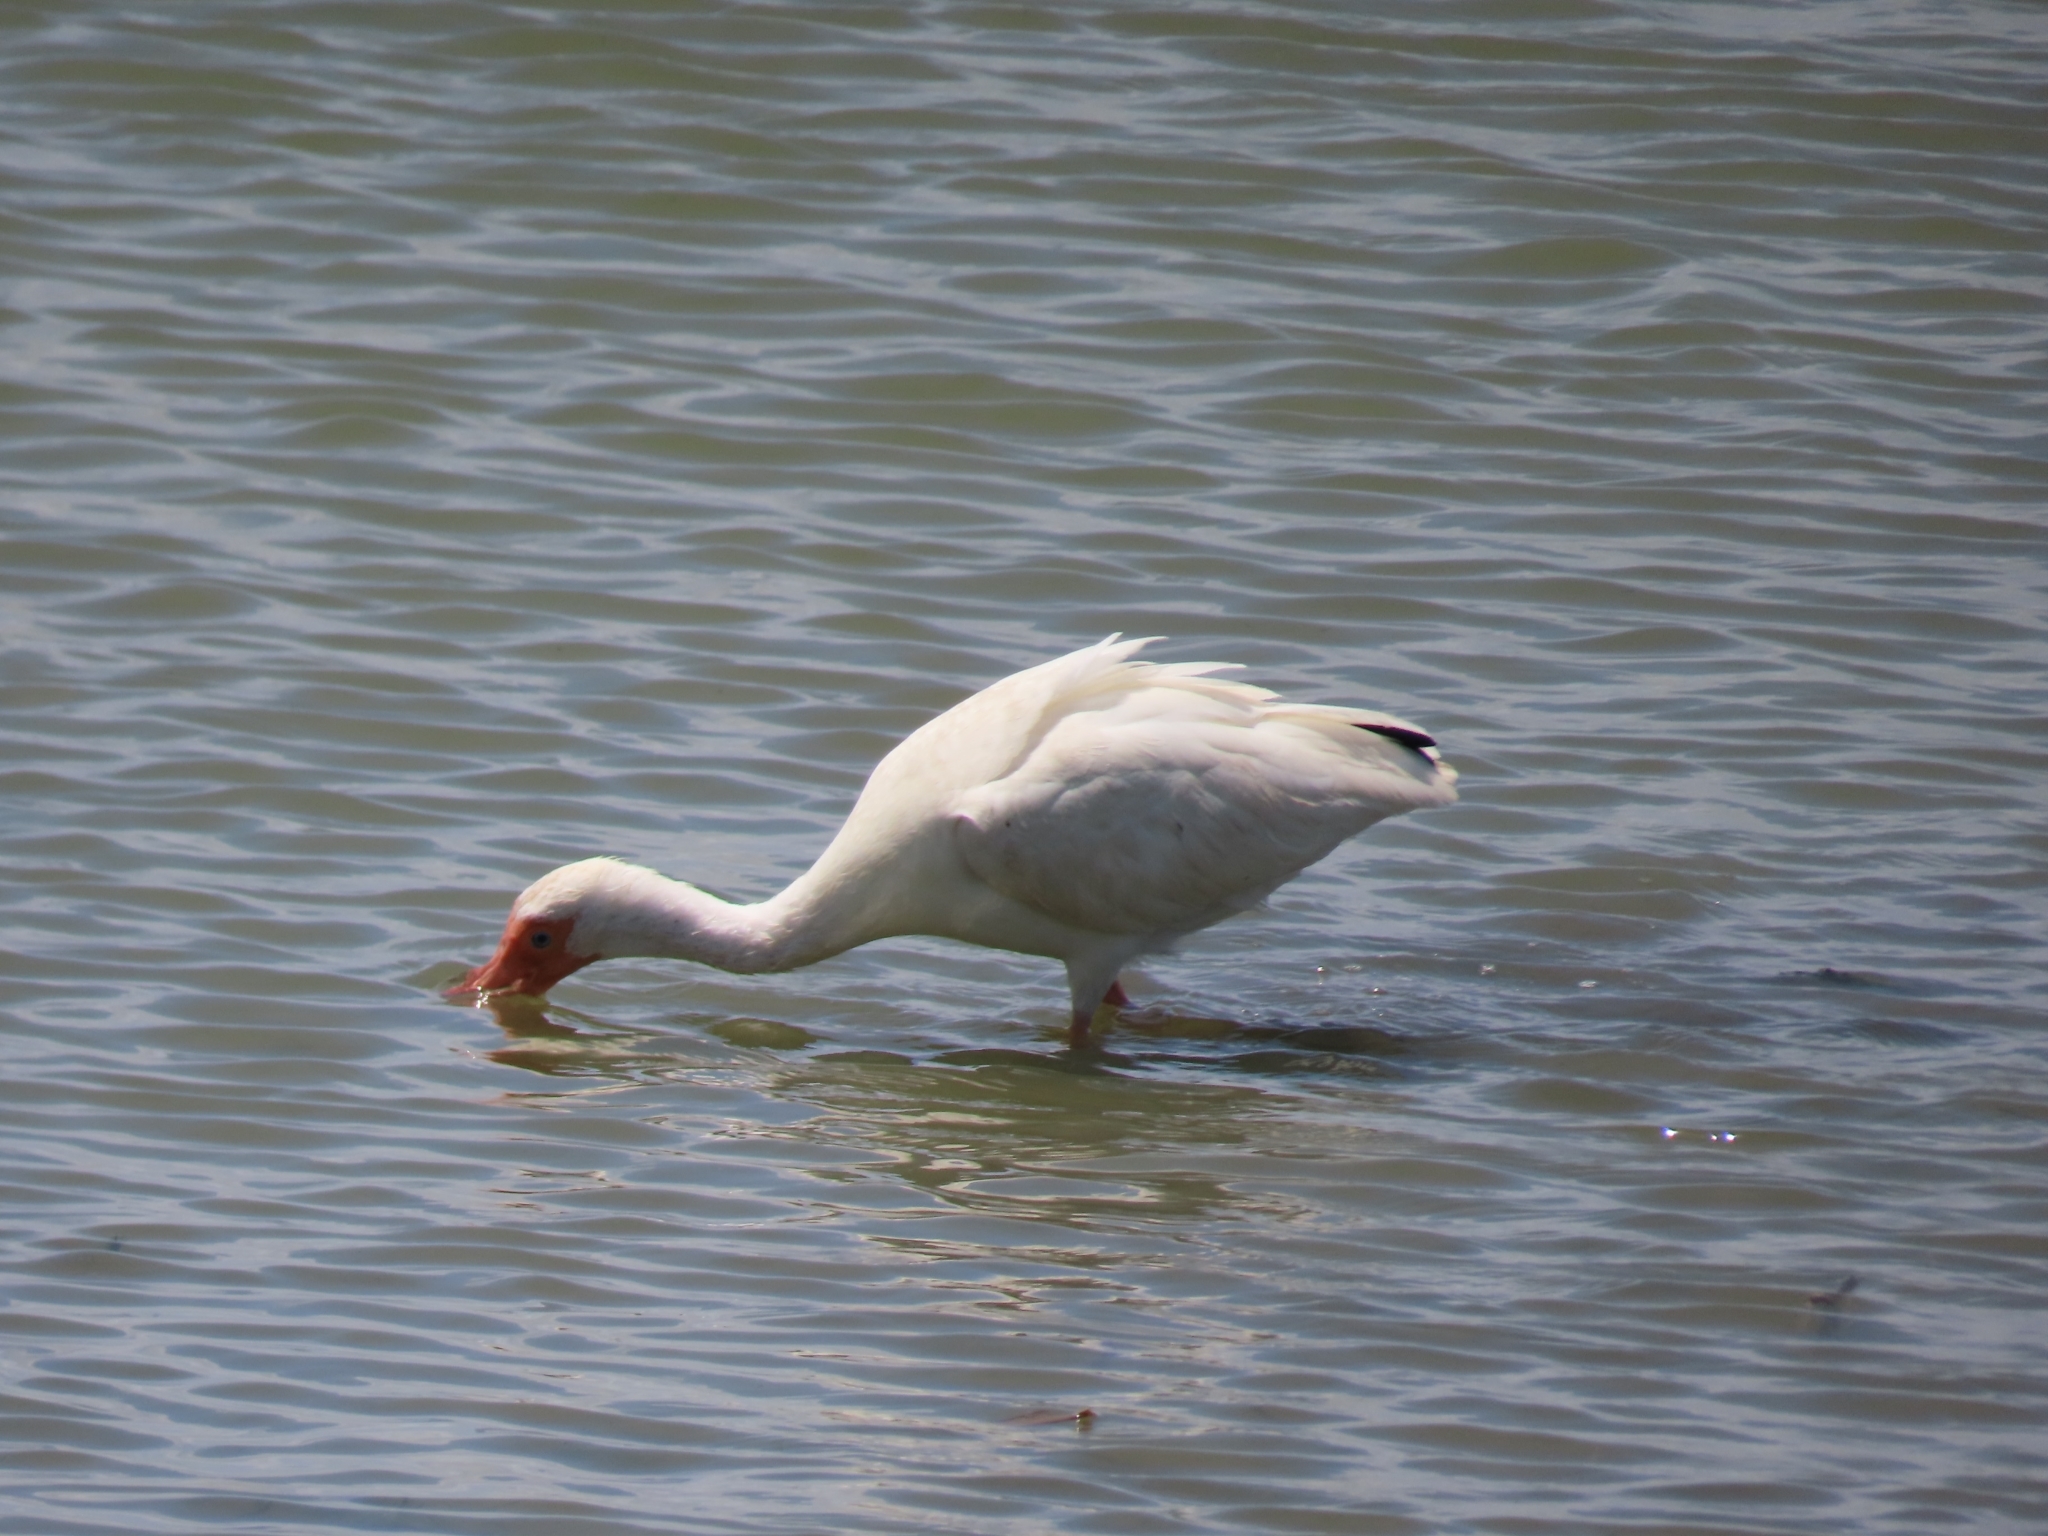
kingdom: Animalia
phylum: Chordata
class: Aves
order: Pelecaniformes
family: Threskiornithidae
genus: Eudocimus
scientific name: Eudocimus albus
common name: White ibis
